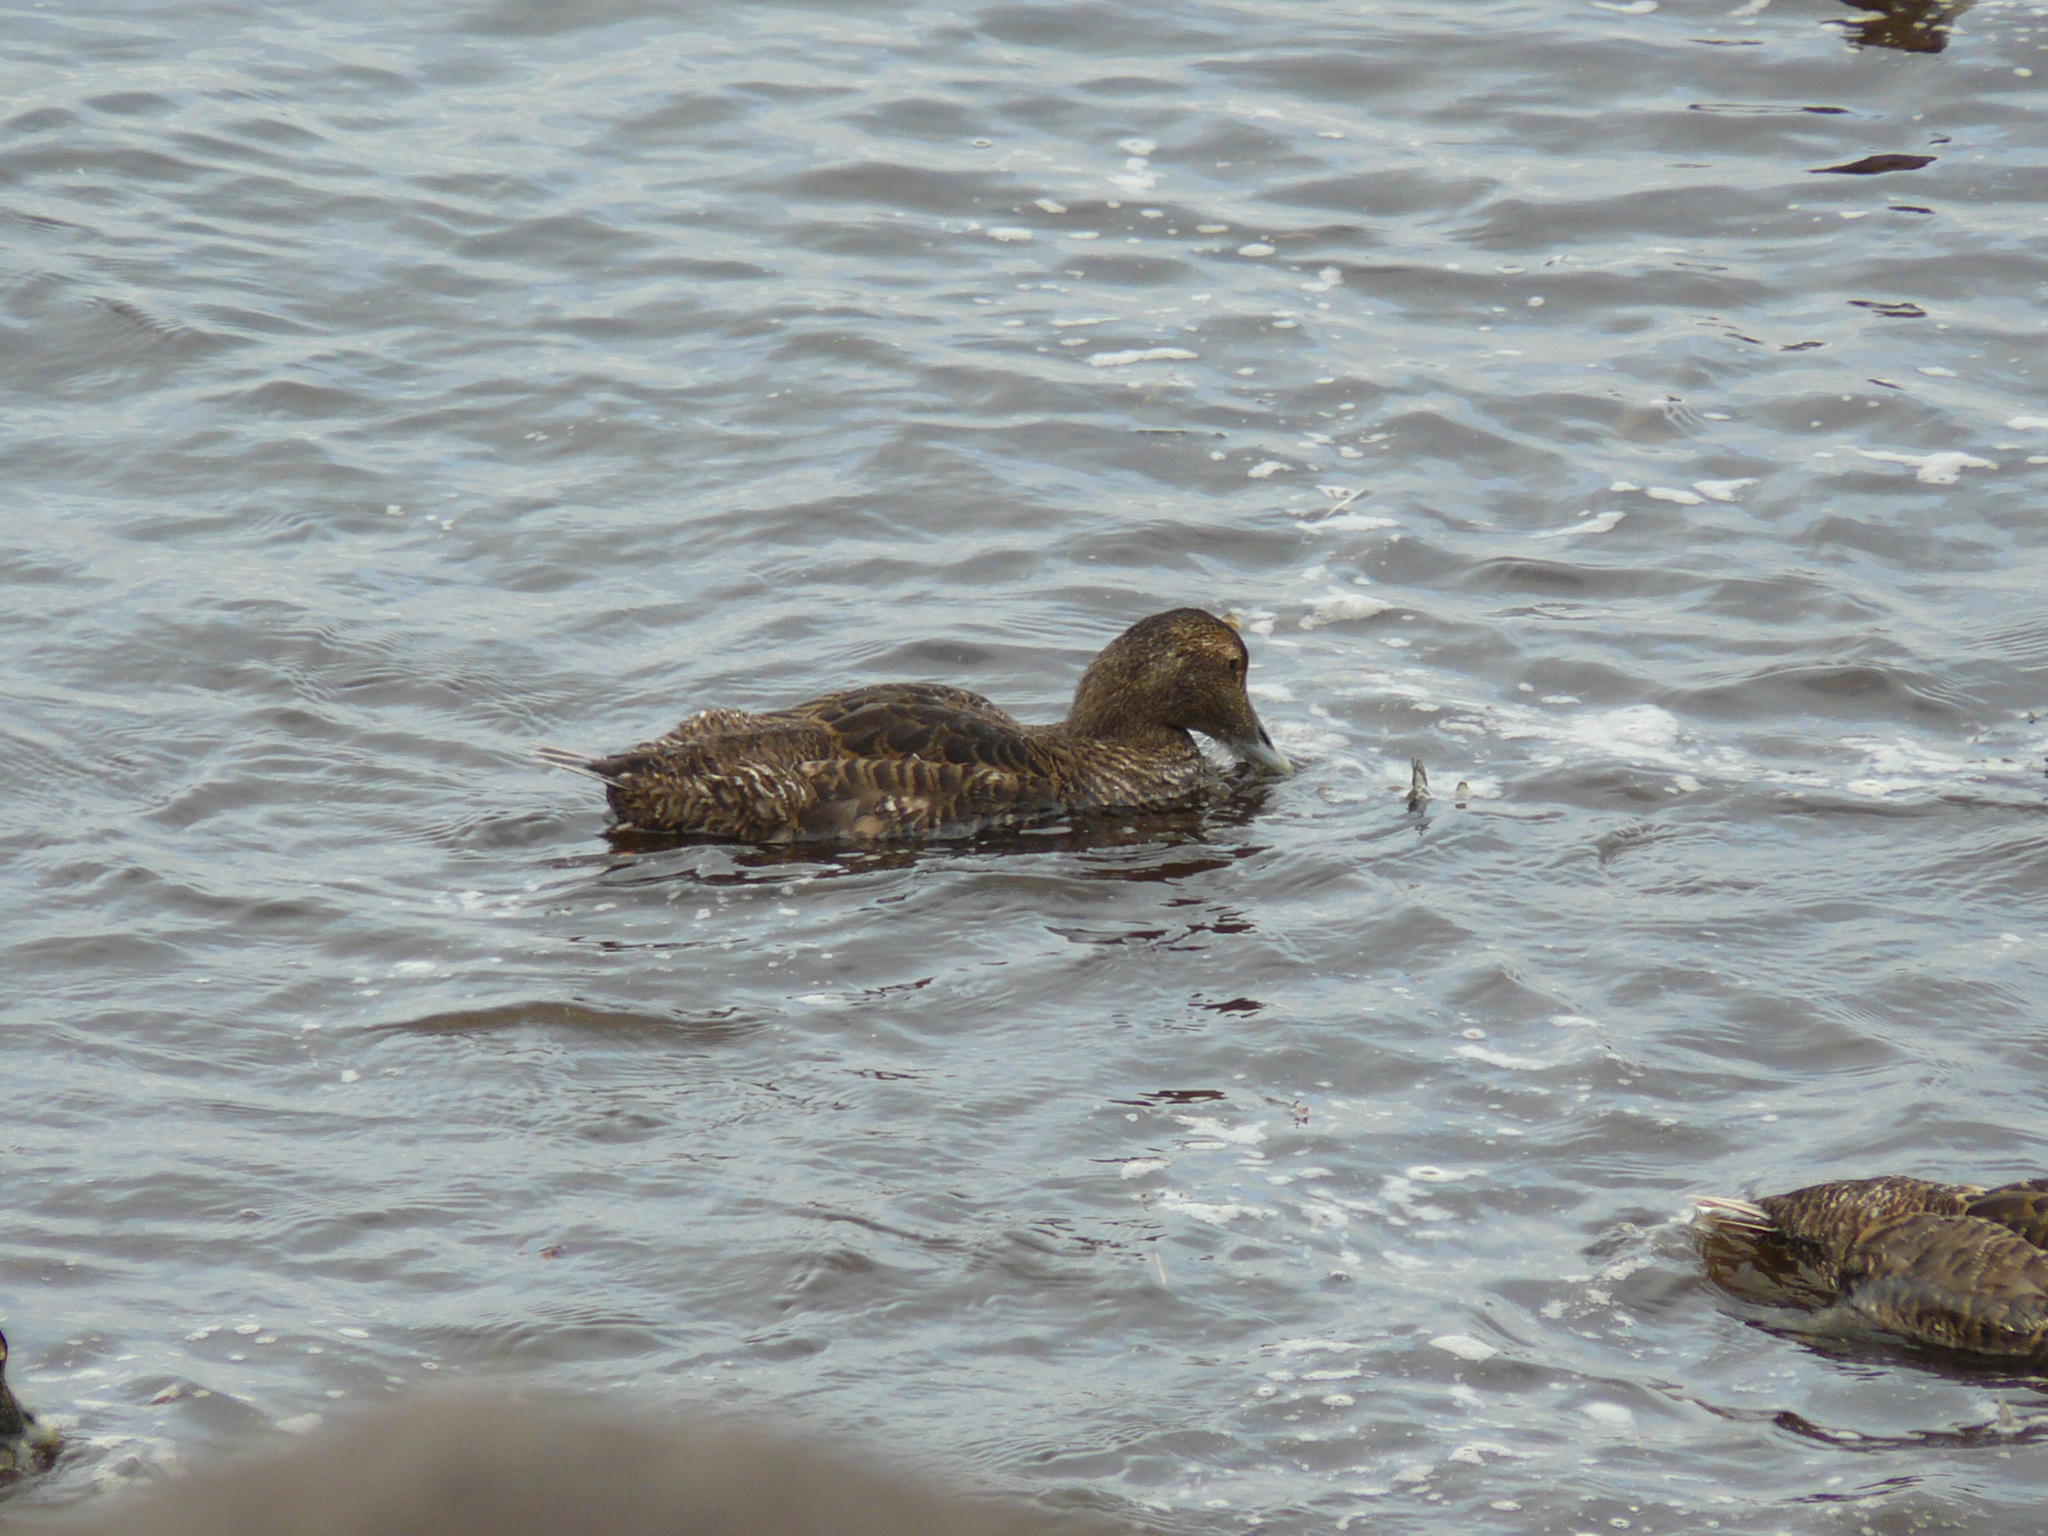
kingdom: Animalia
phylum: Chordata
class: Aves
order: Anseriformes
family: Anatidae
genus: Somateria
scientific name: Somateria mollissima
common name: Common eider
